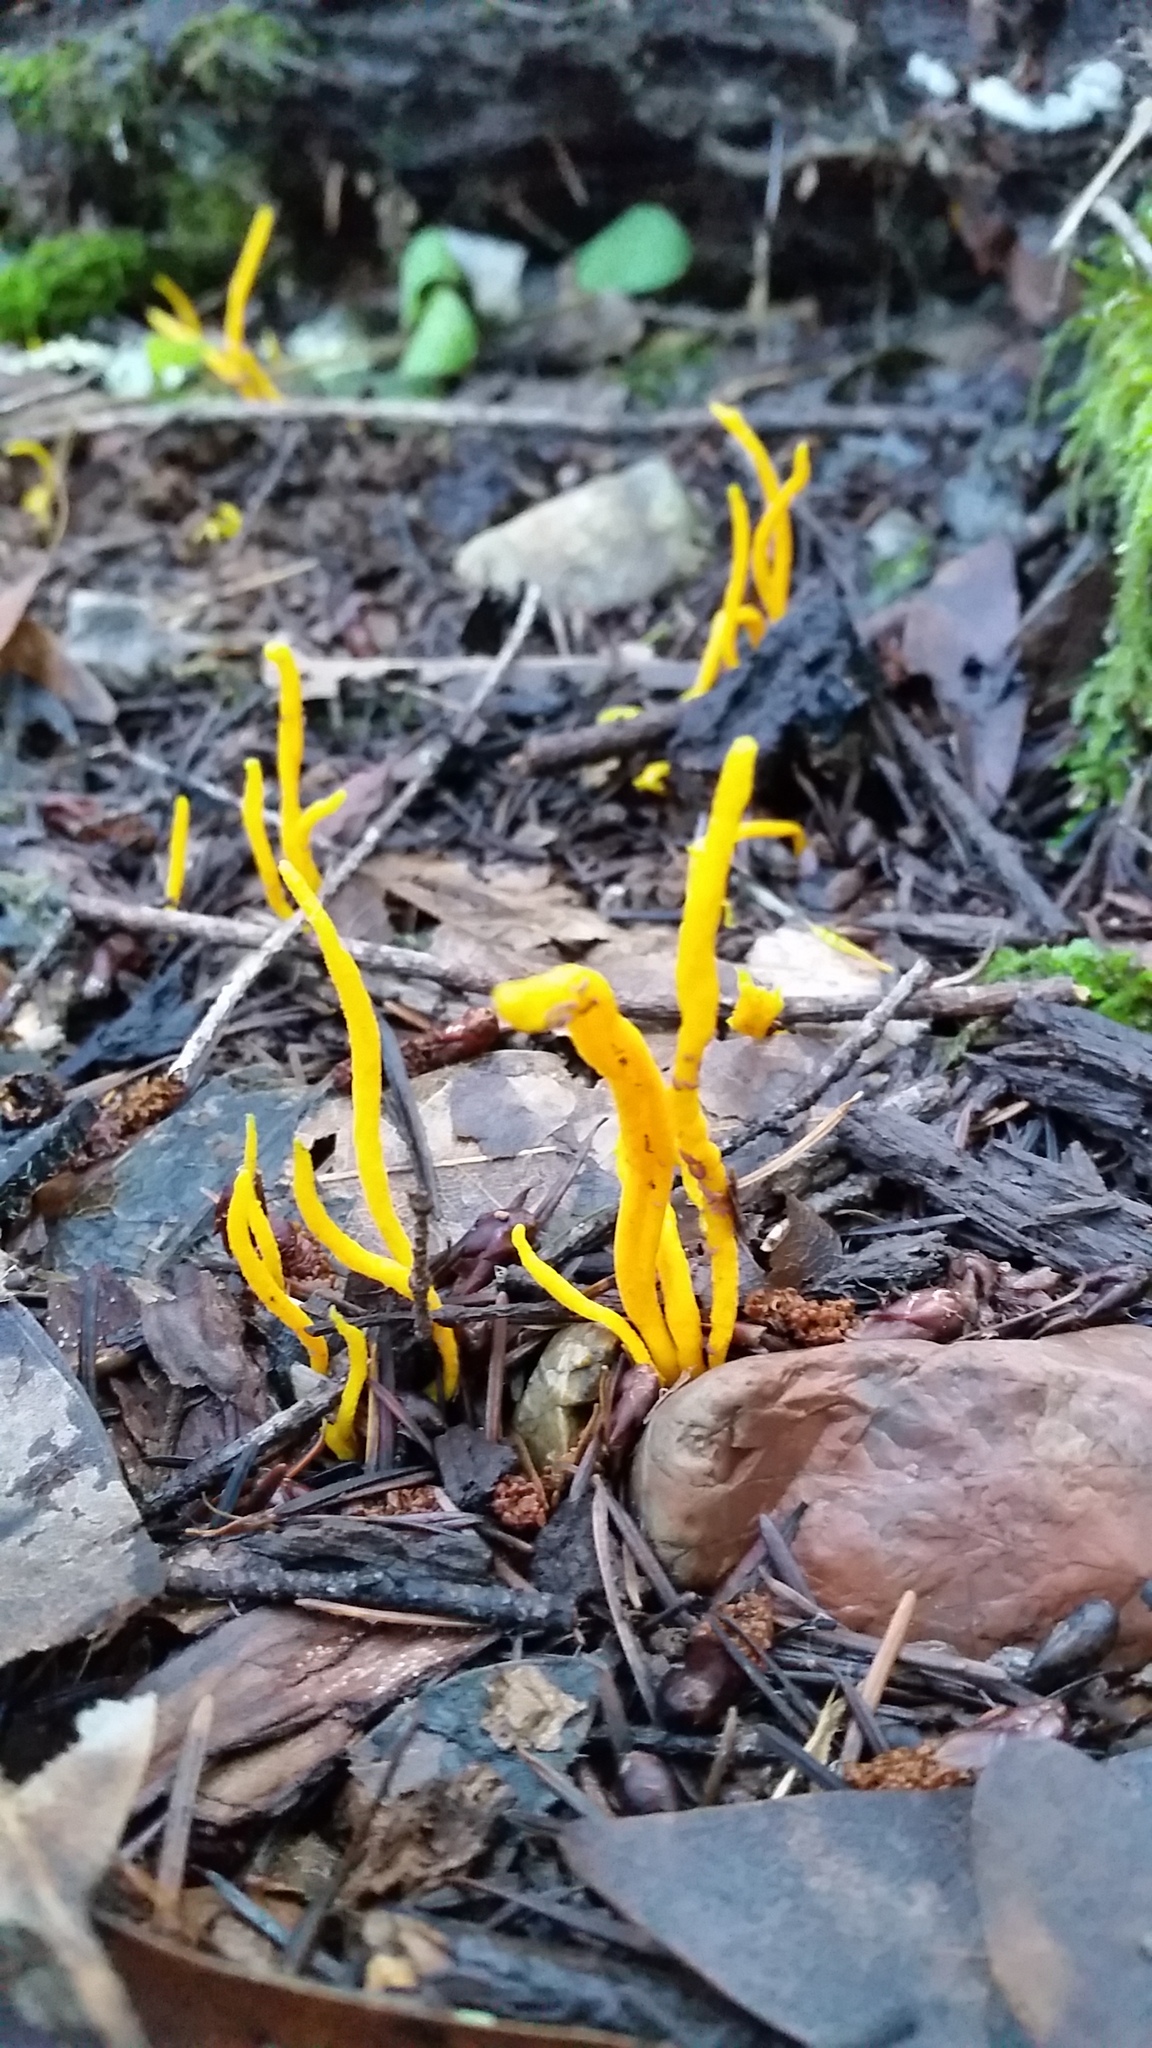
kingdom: Fungi
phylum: Basidiomycota
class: Agaricomycetes
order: Agaricales
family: Clavariaceae
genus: Clavulinopsis
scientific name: Clavulinopsis fusiformis
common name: Golden spindles
